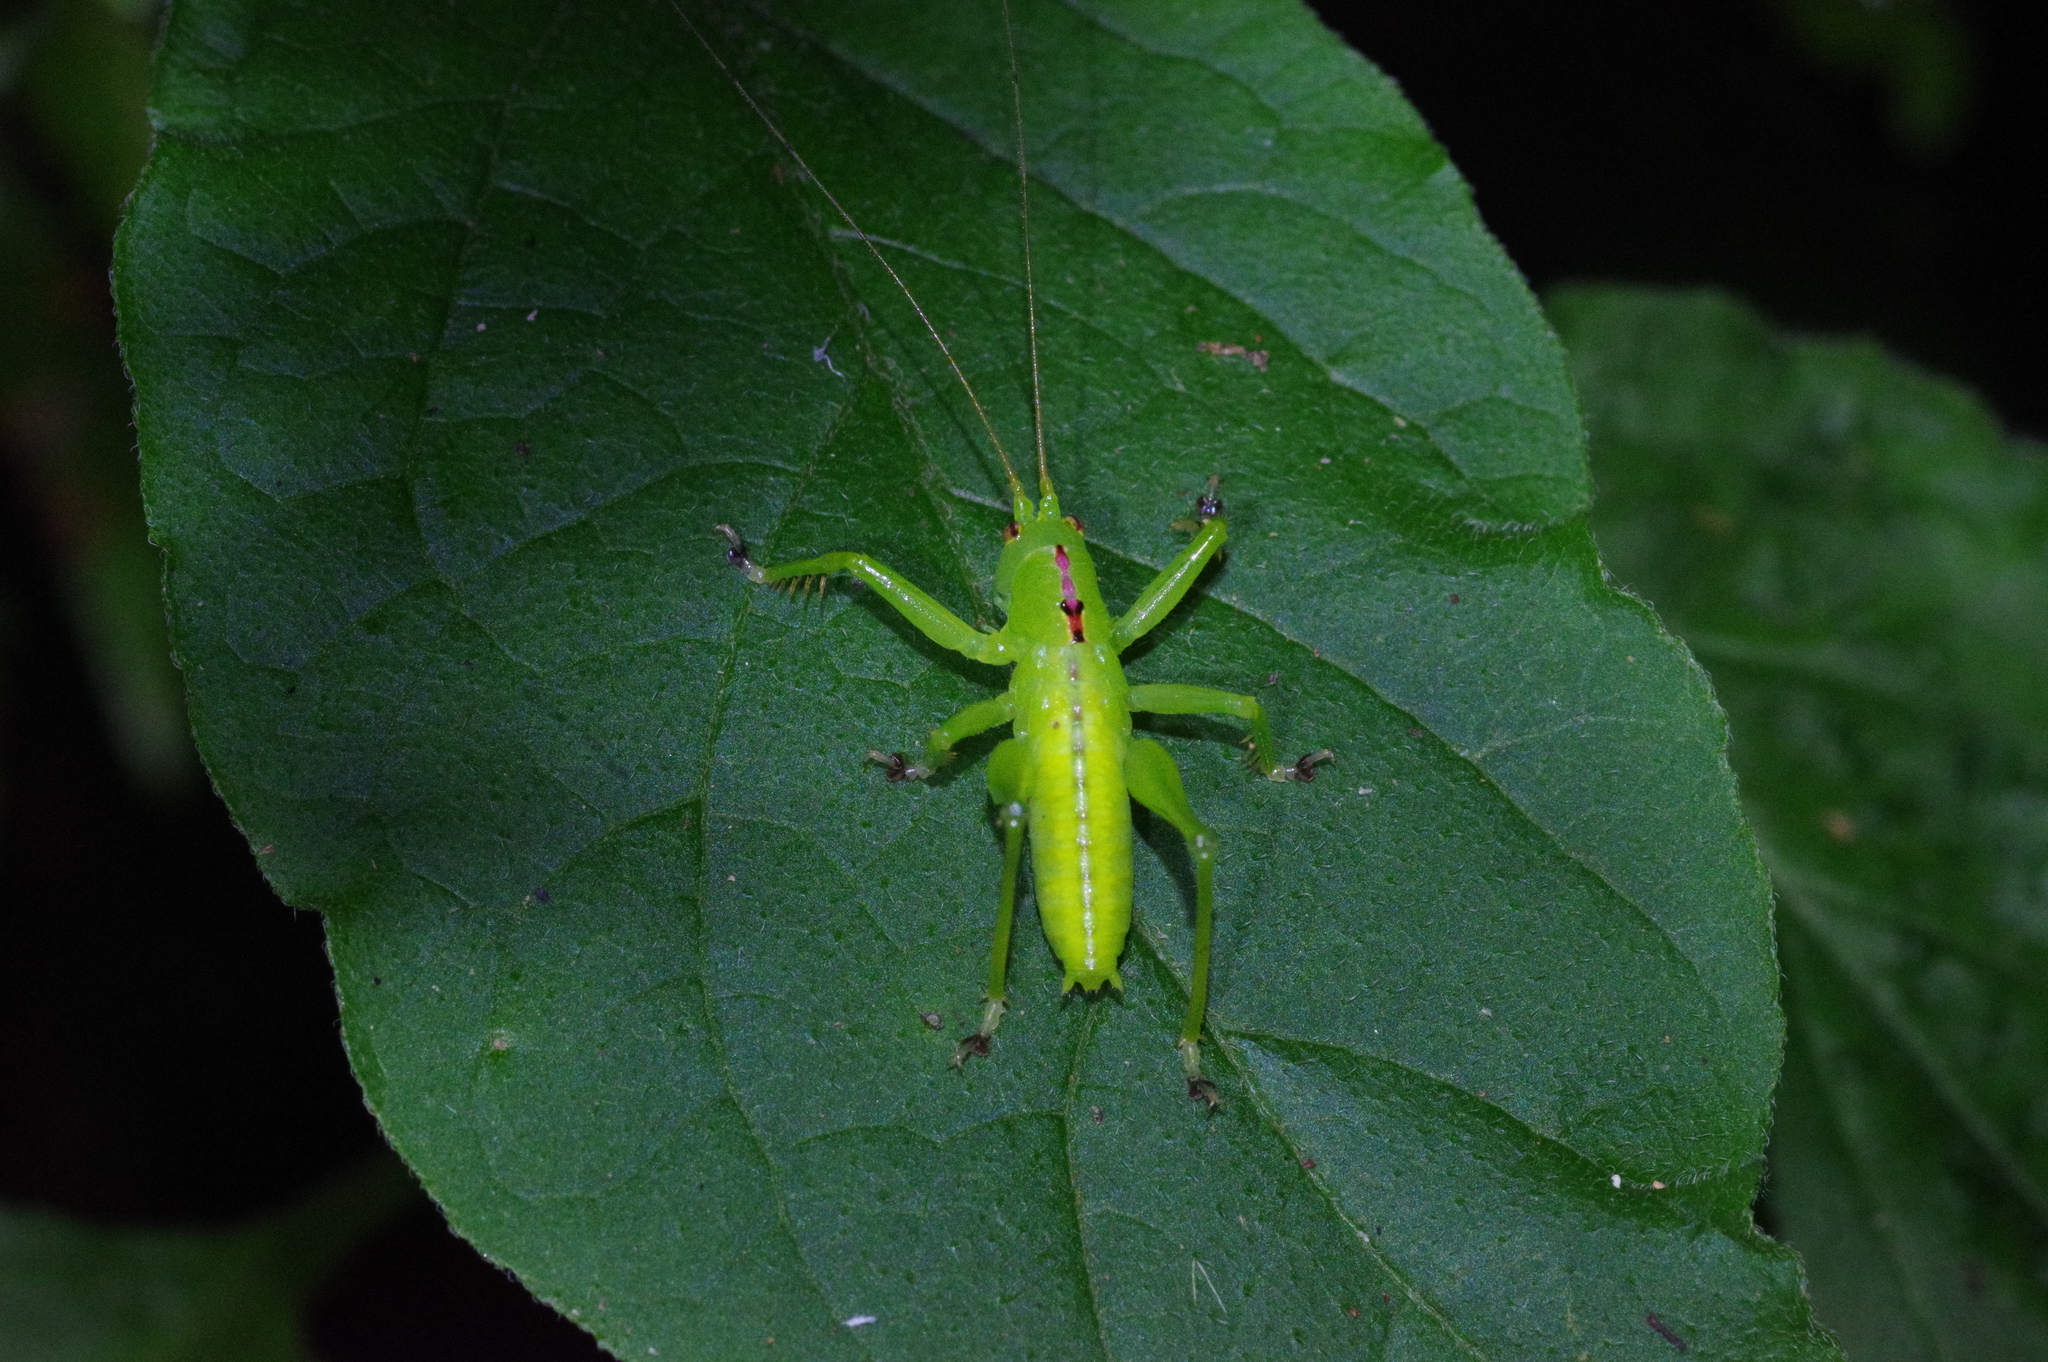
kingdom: Animalia
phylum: Arthropoda
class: Insecta
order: Orthoptera
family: Tettigoniidae
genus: Hexacentrus
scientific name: Hexacentrus unicolor
